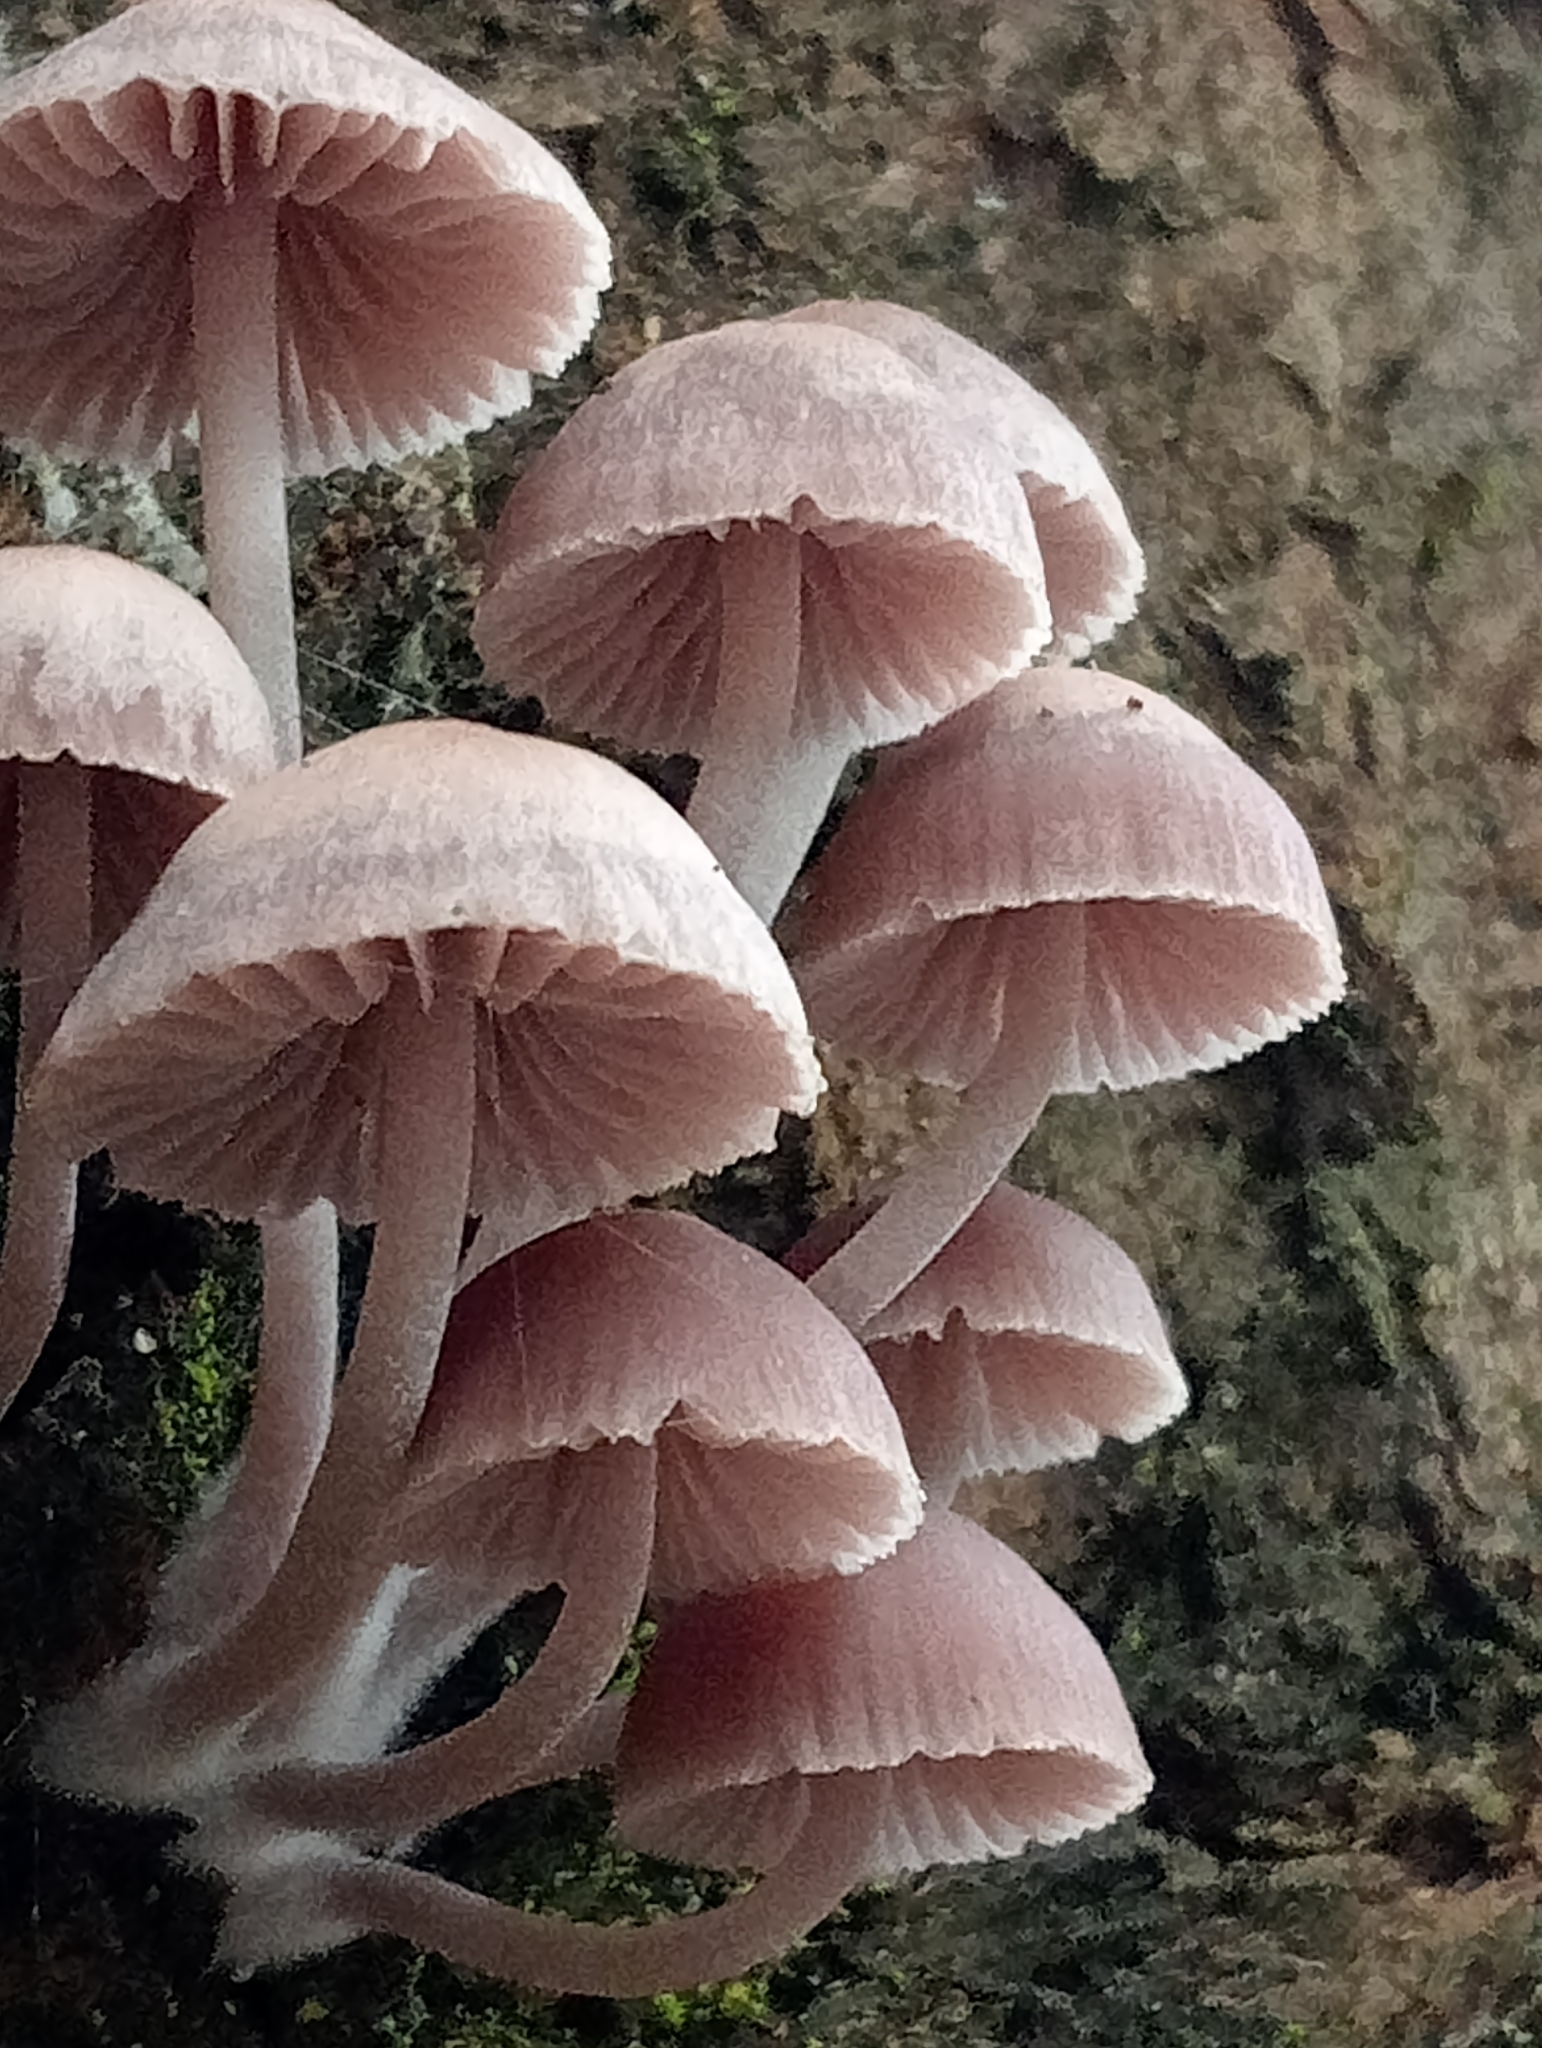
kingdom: Fungi
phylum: Basidiomycota
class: Agaricomycetes
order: Agaricales
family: Mycenaceae
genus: Mycena
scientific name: Mycena clarkeana
